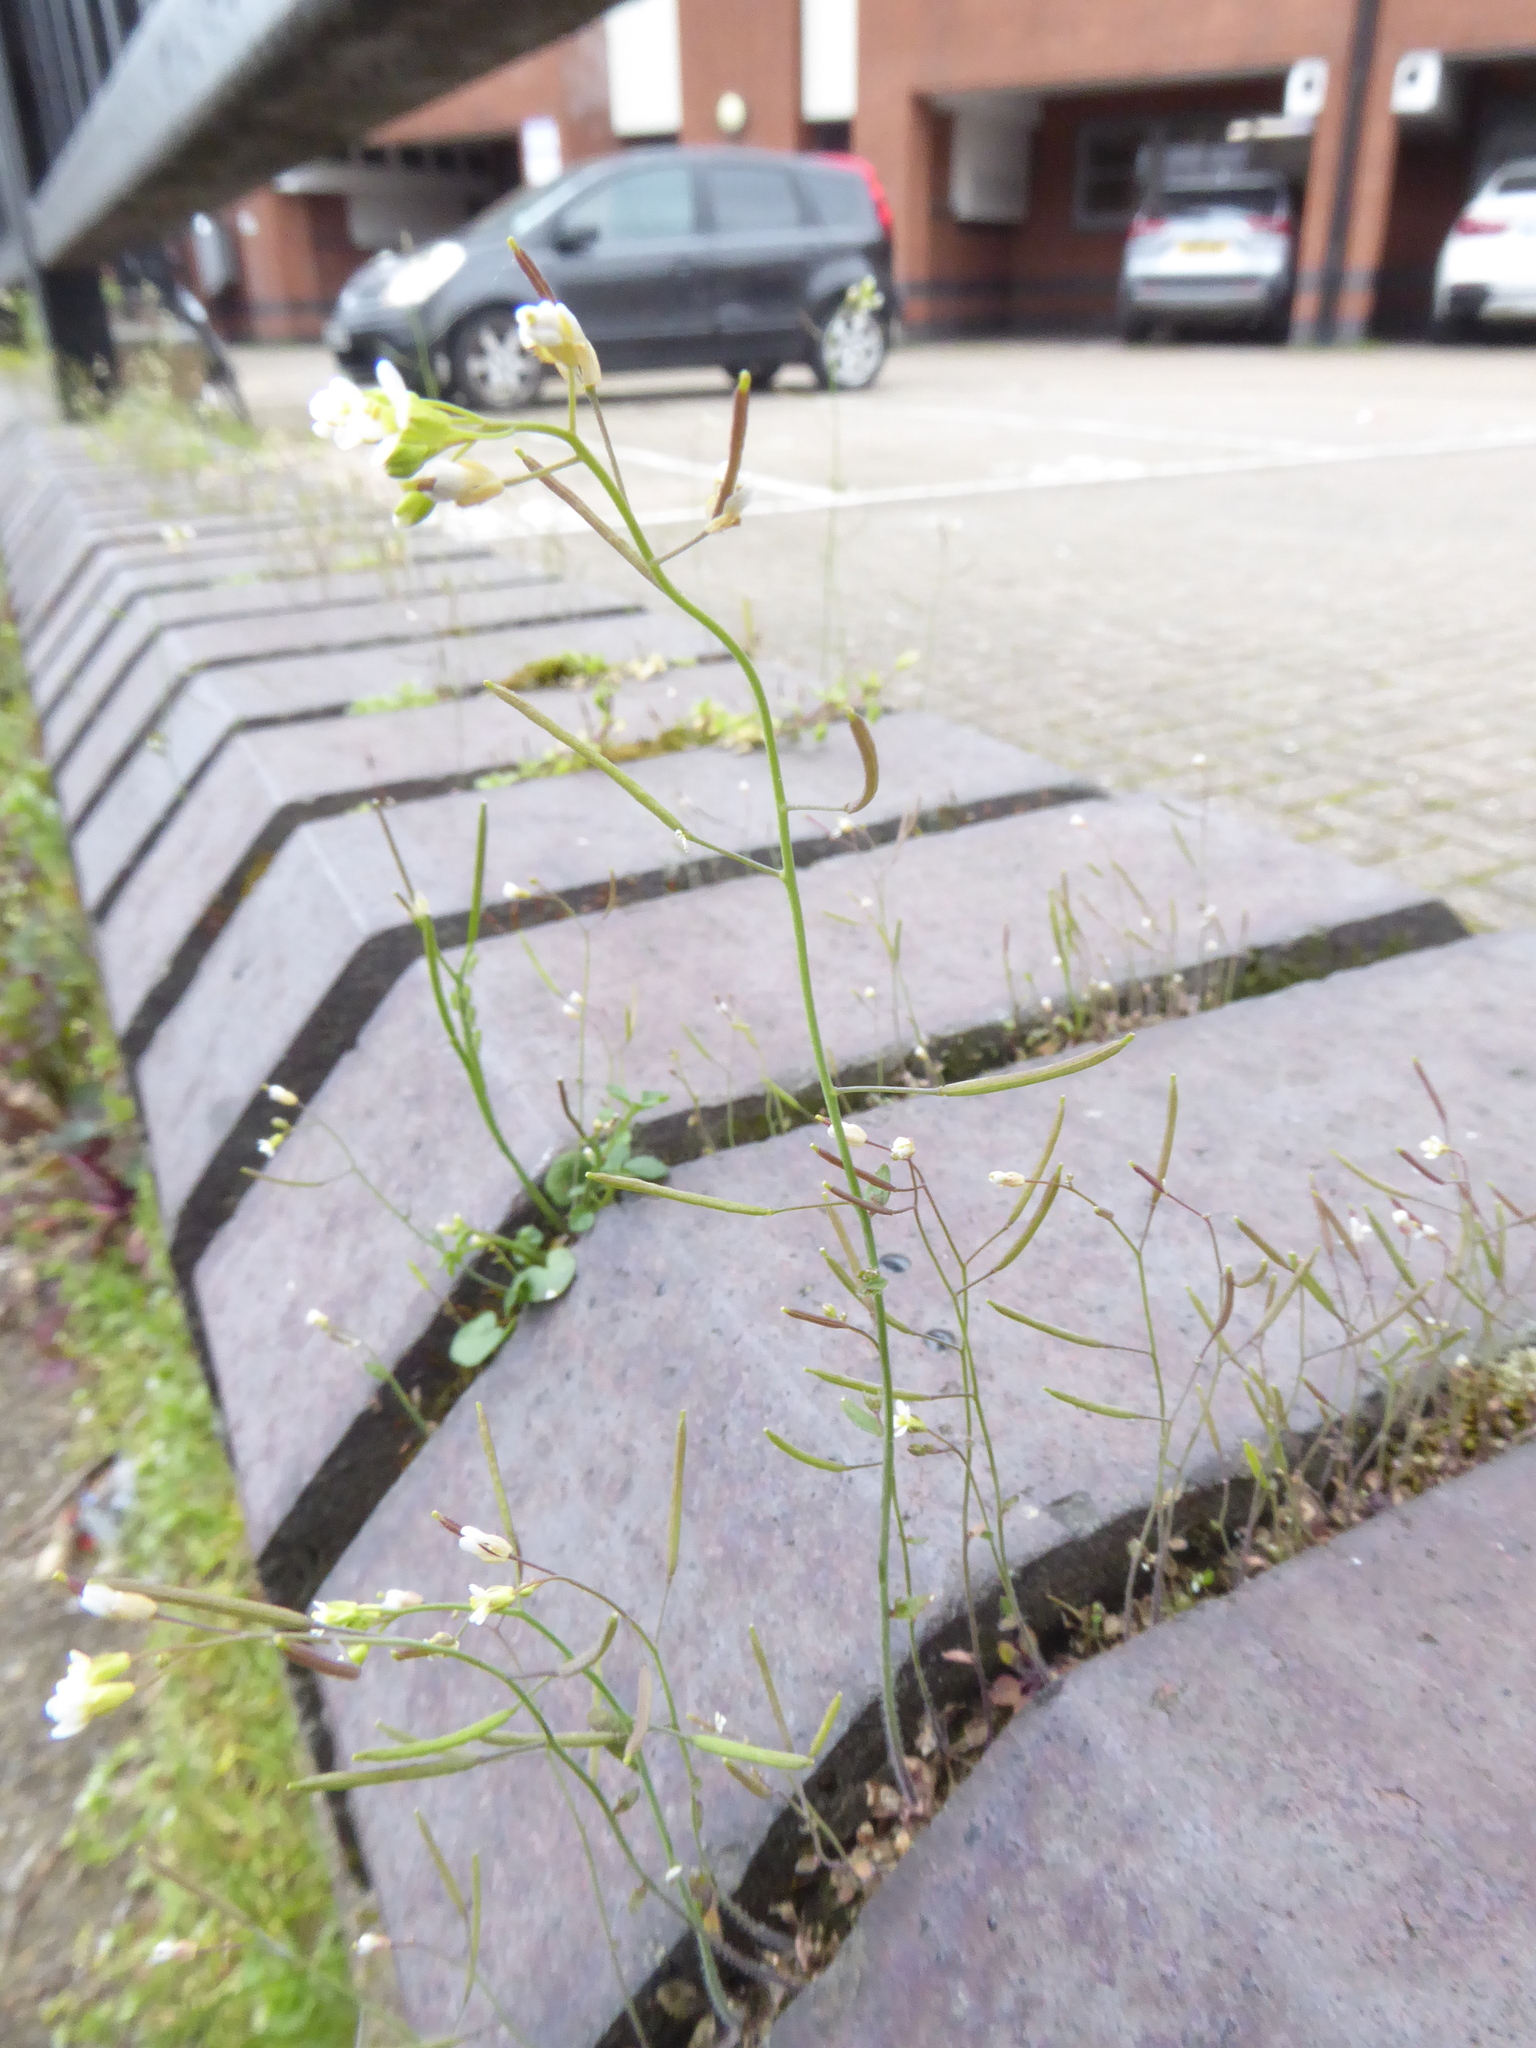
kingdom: Plantae
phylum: Tracheophyta
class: Magnoliopsida
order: Brassicales
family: Brassicaceae
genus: Arabidopsis
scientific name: Arabidopsis thaliana
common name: Thale cress
